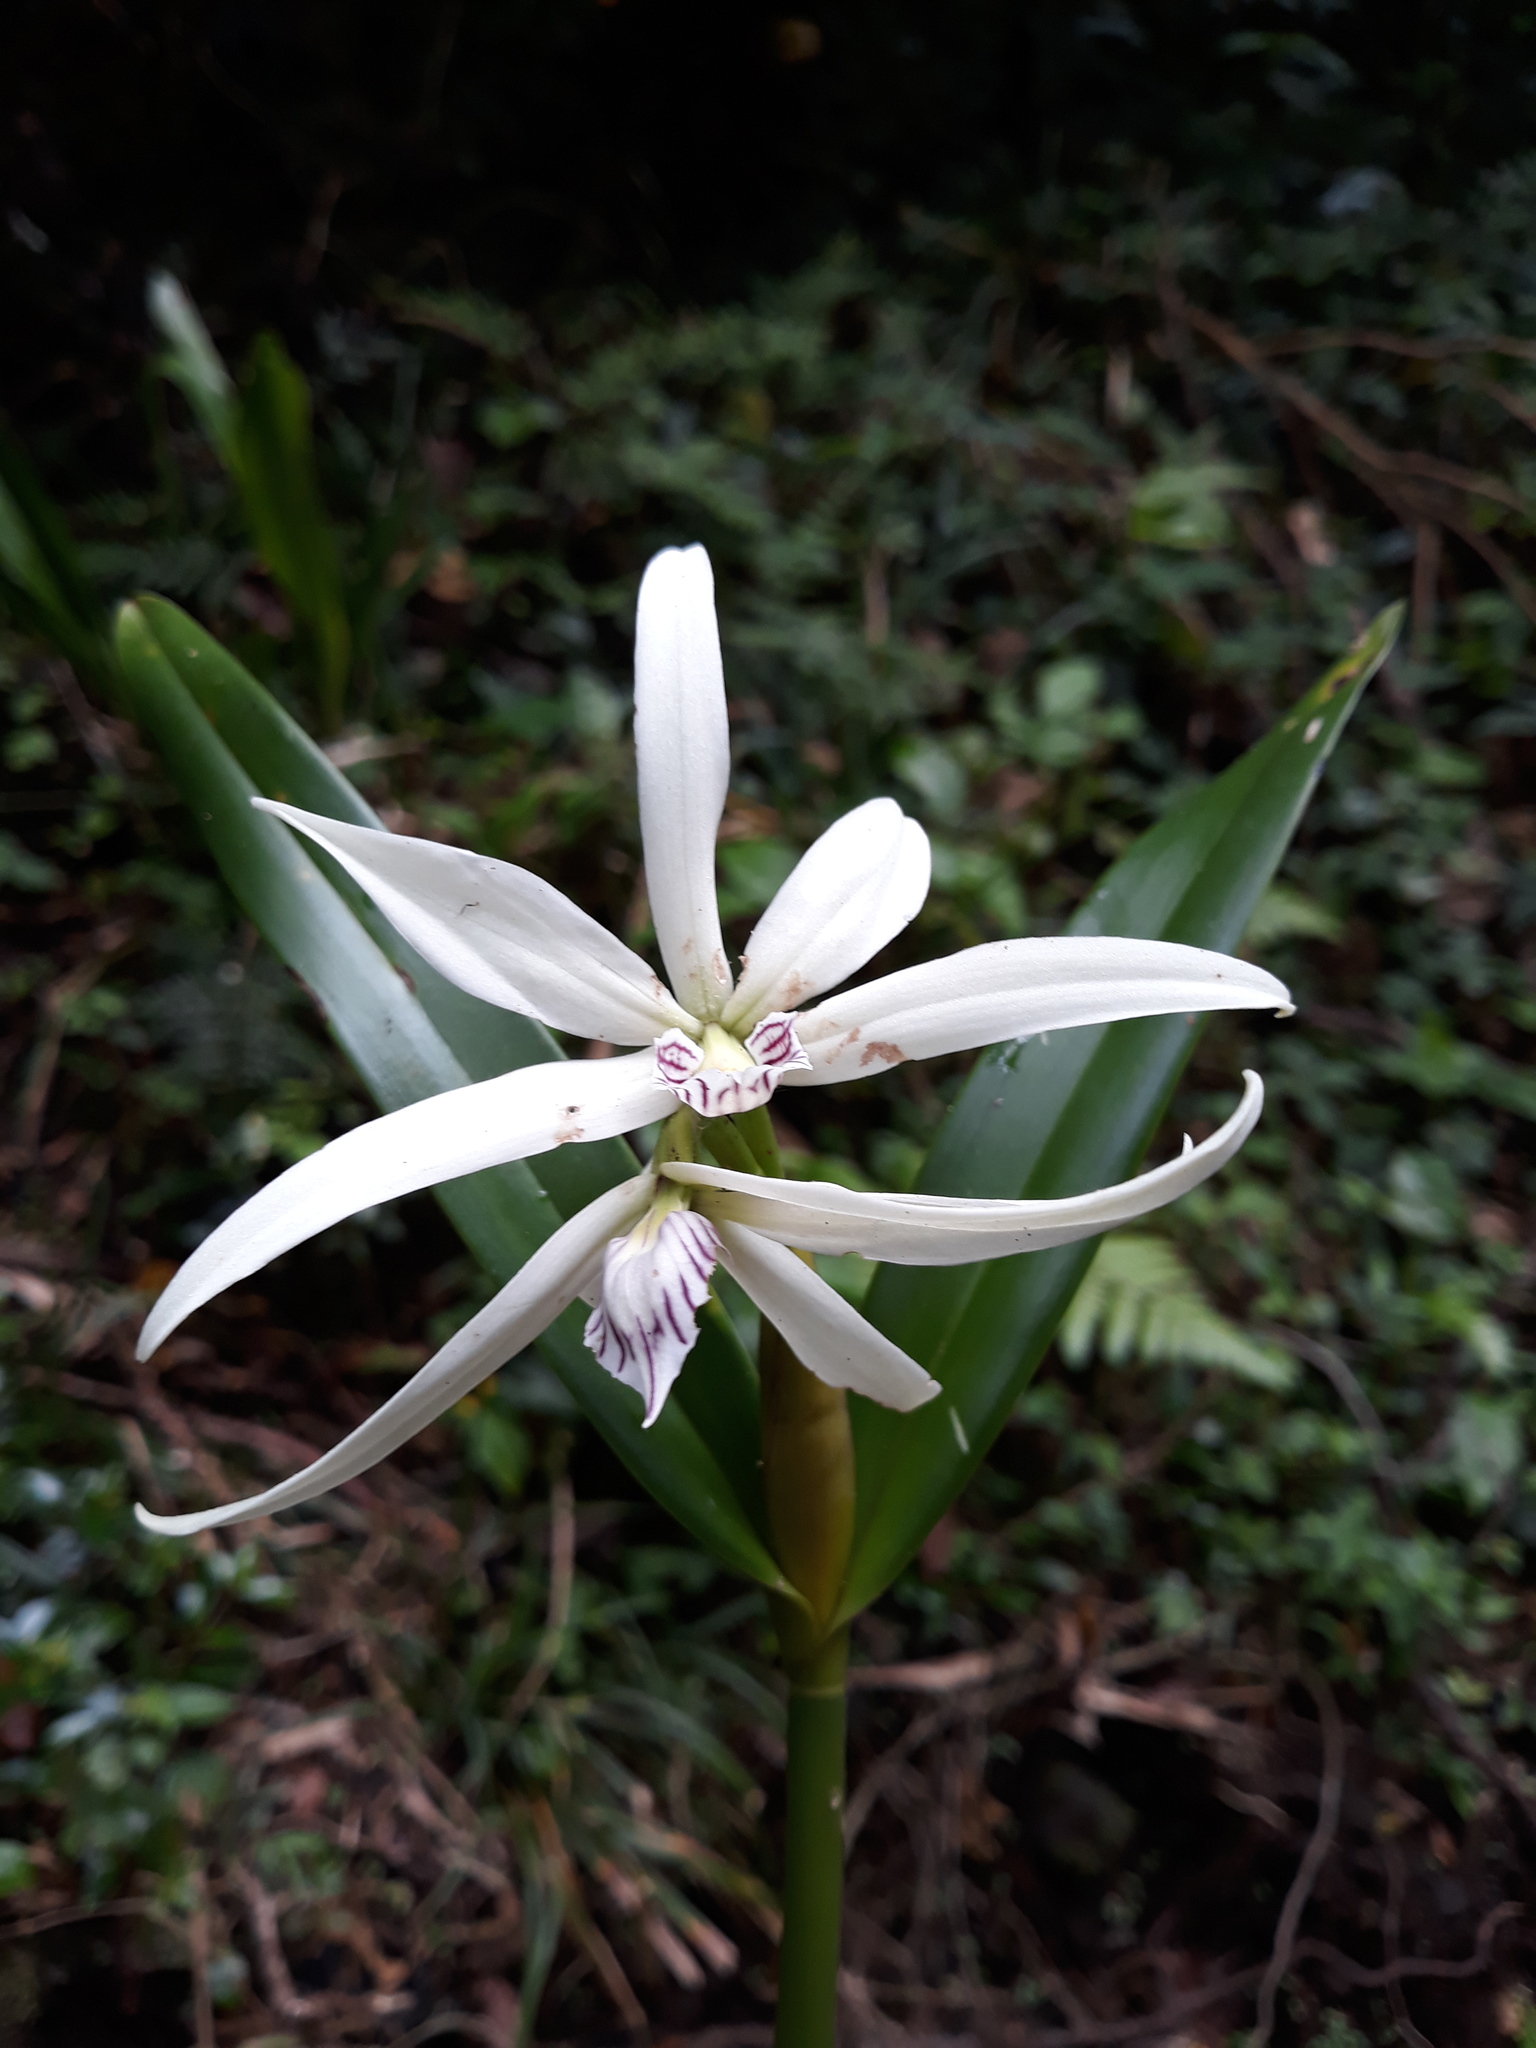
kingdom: Plantae
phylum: Tracheophyta
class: Liliopsida
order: Asparagales
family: Orchidaceae
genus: Prosthechea
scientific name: Prosthechea baculus
